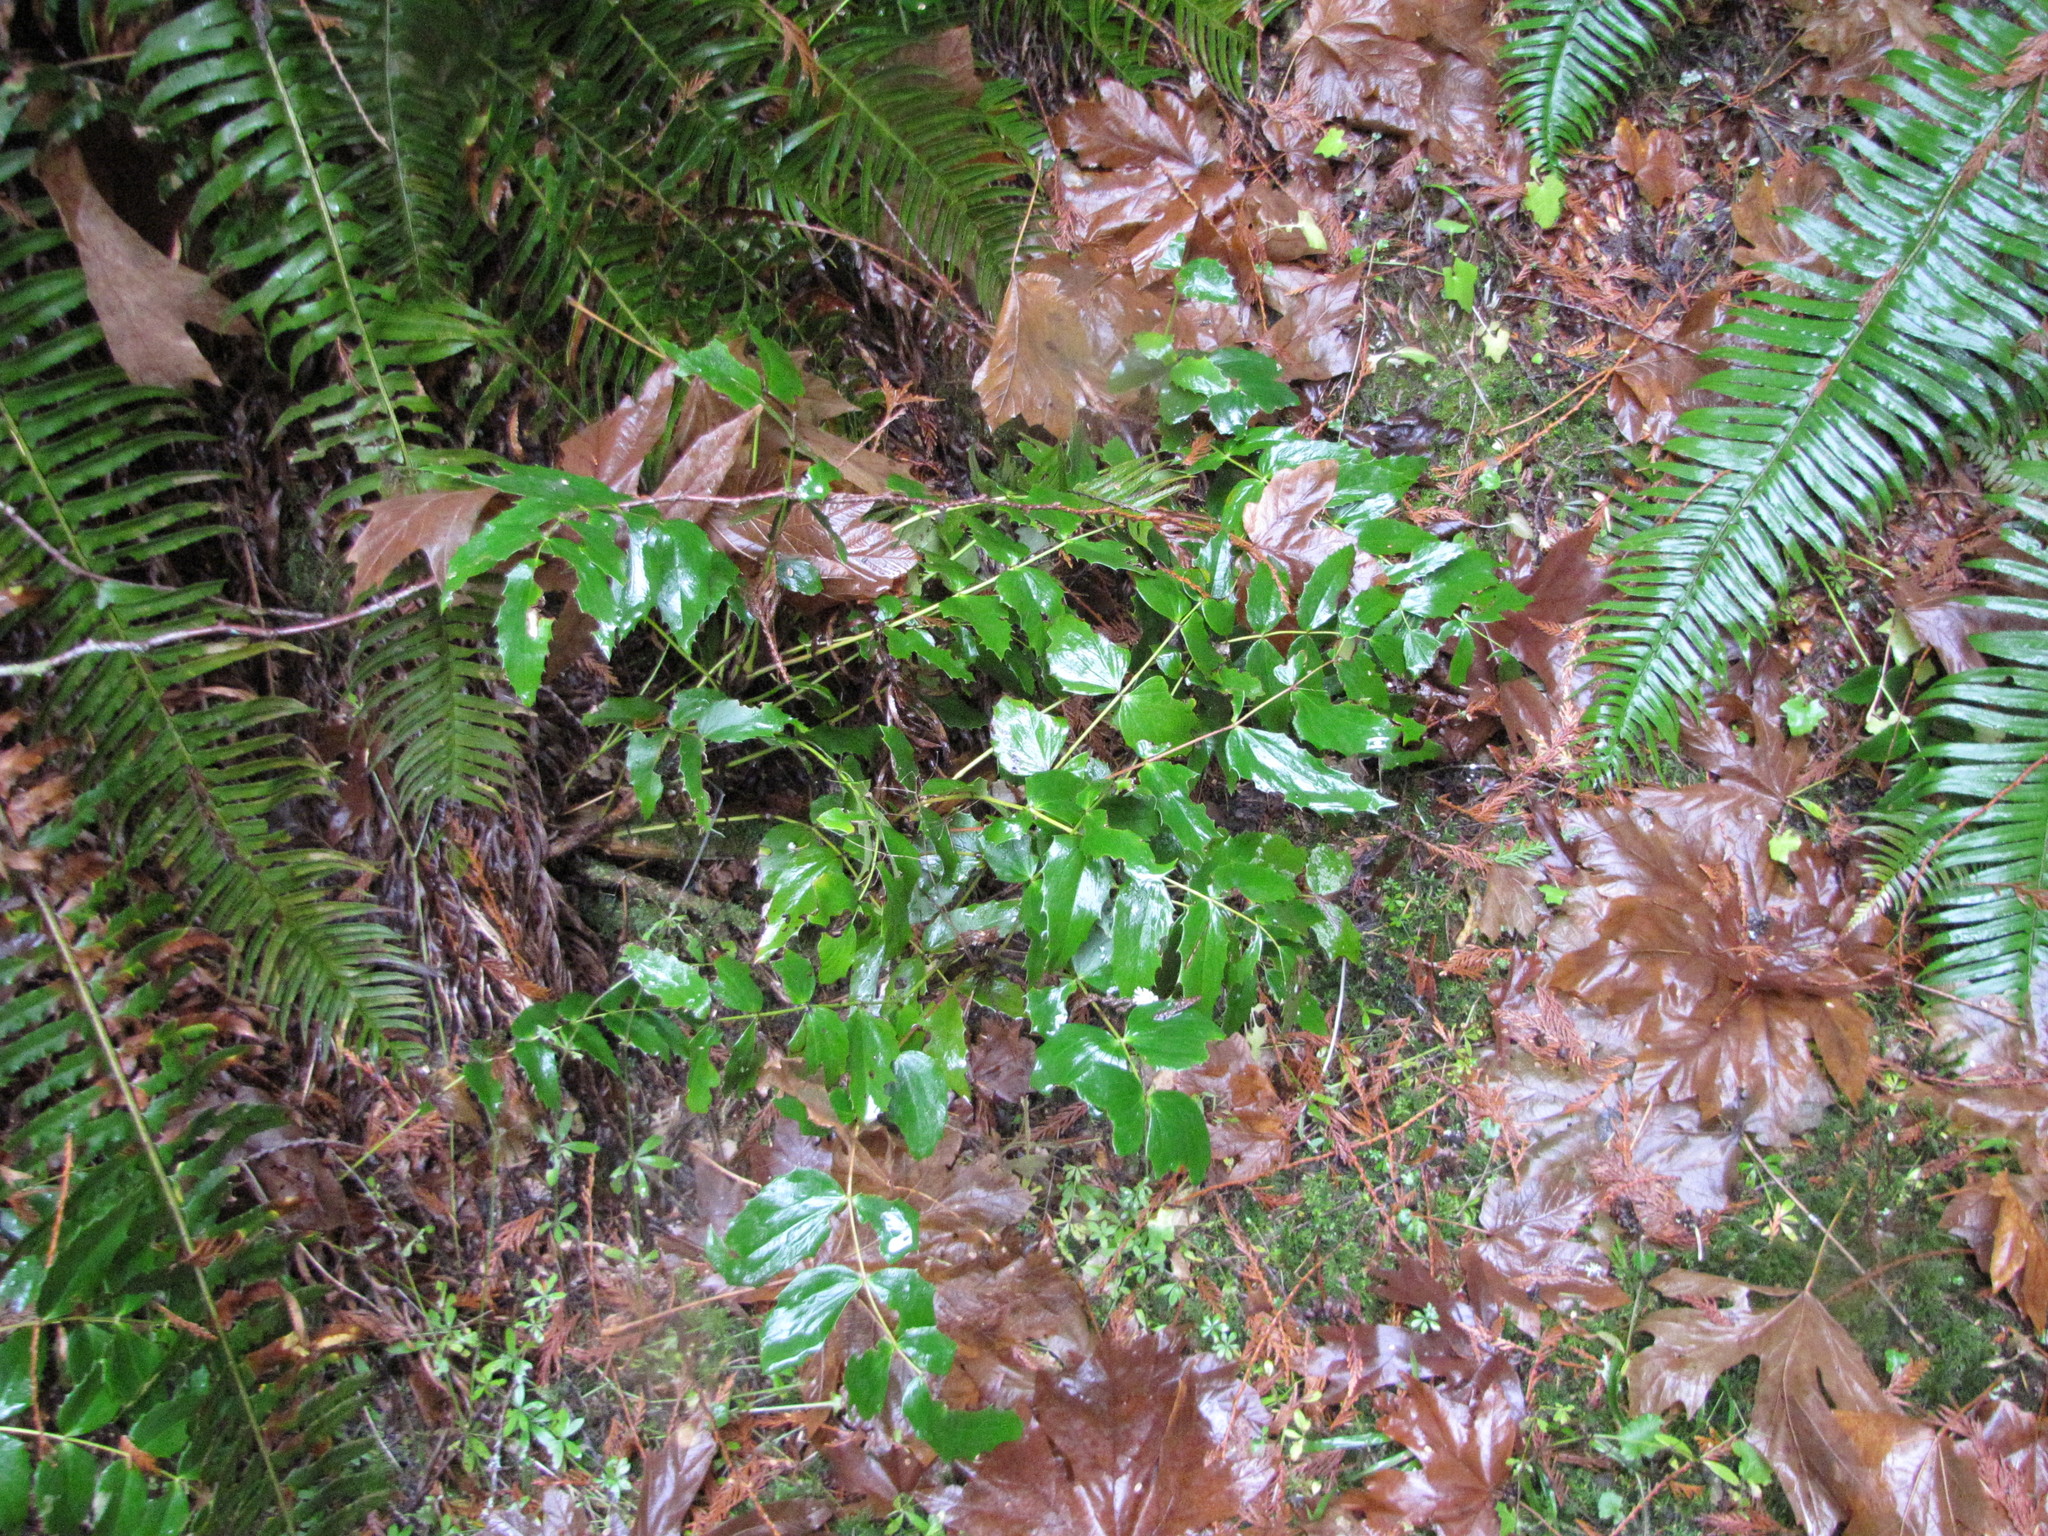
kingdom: Plantae
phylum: Tracheophyta
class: Magnoliopsida
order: Ranunculales
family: Berberidaceae
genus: Mahonia
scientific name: Mahonia nervosa
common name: Cascade oregon-grape
